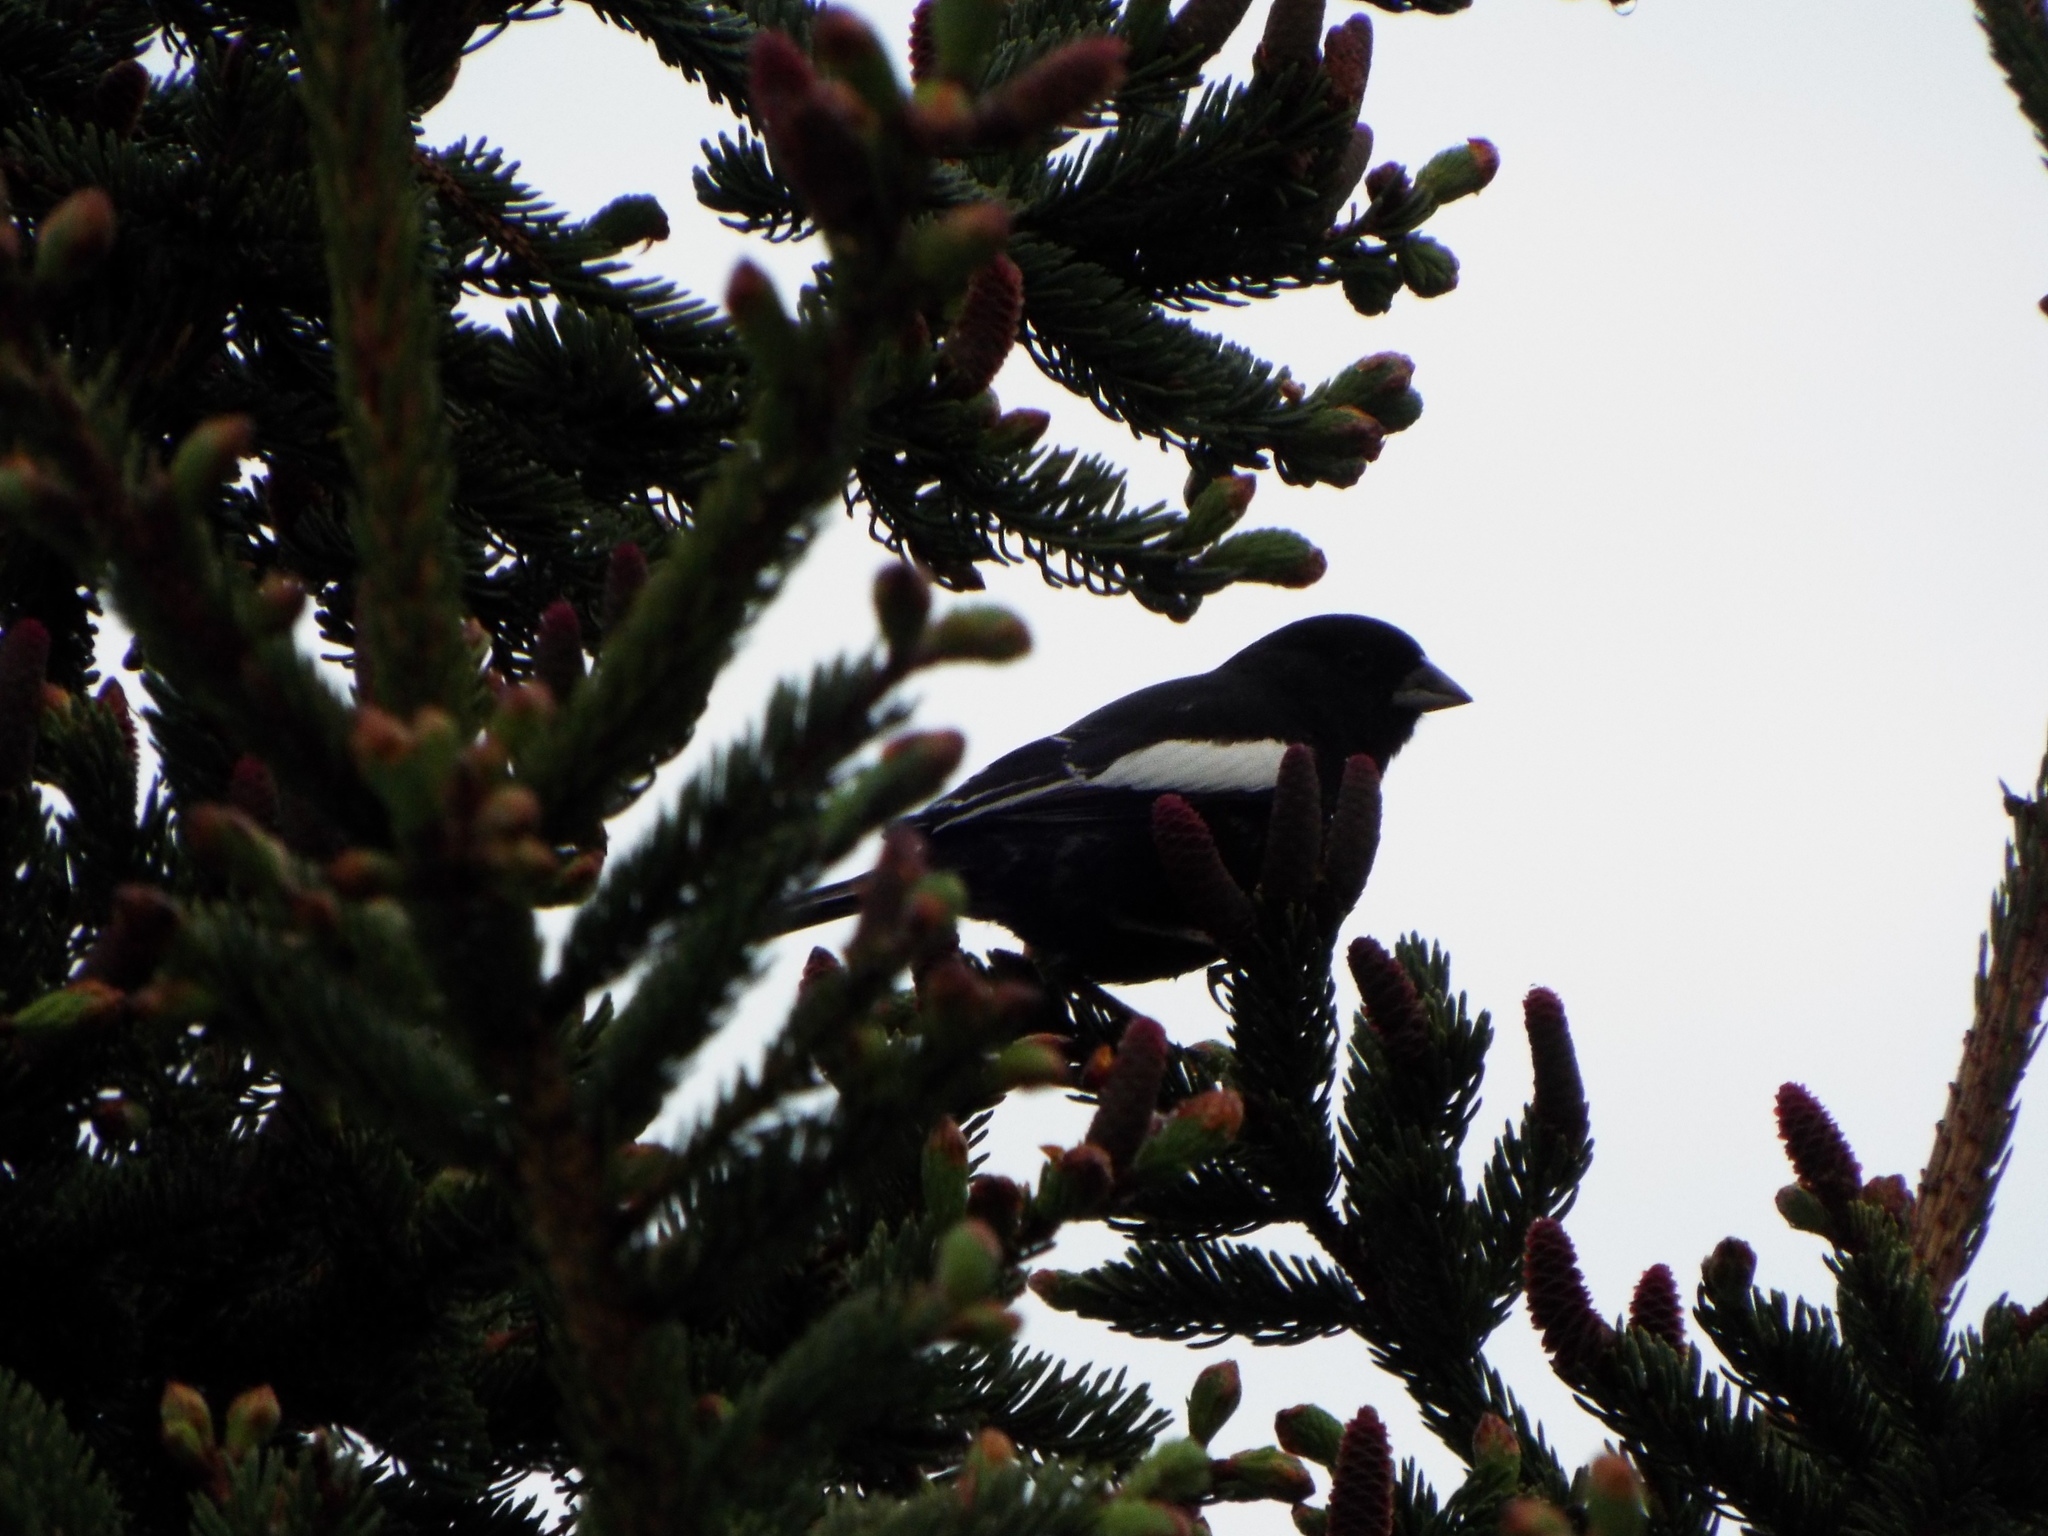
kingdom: Animalia
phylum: Chordata
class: Aves
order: Passeriformes
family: Passerellidae
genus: Calamospiza
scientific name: Calamospiza melanocorys
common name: Lark bunting
